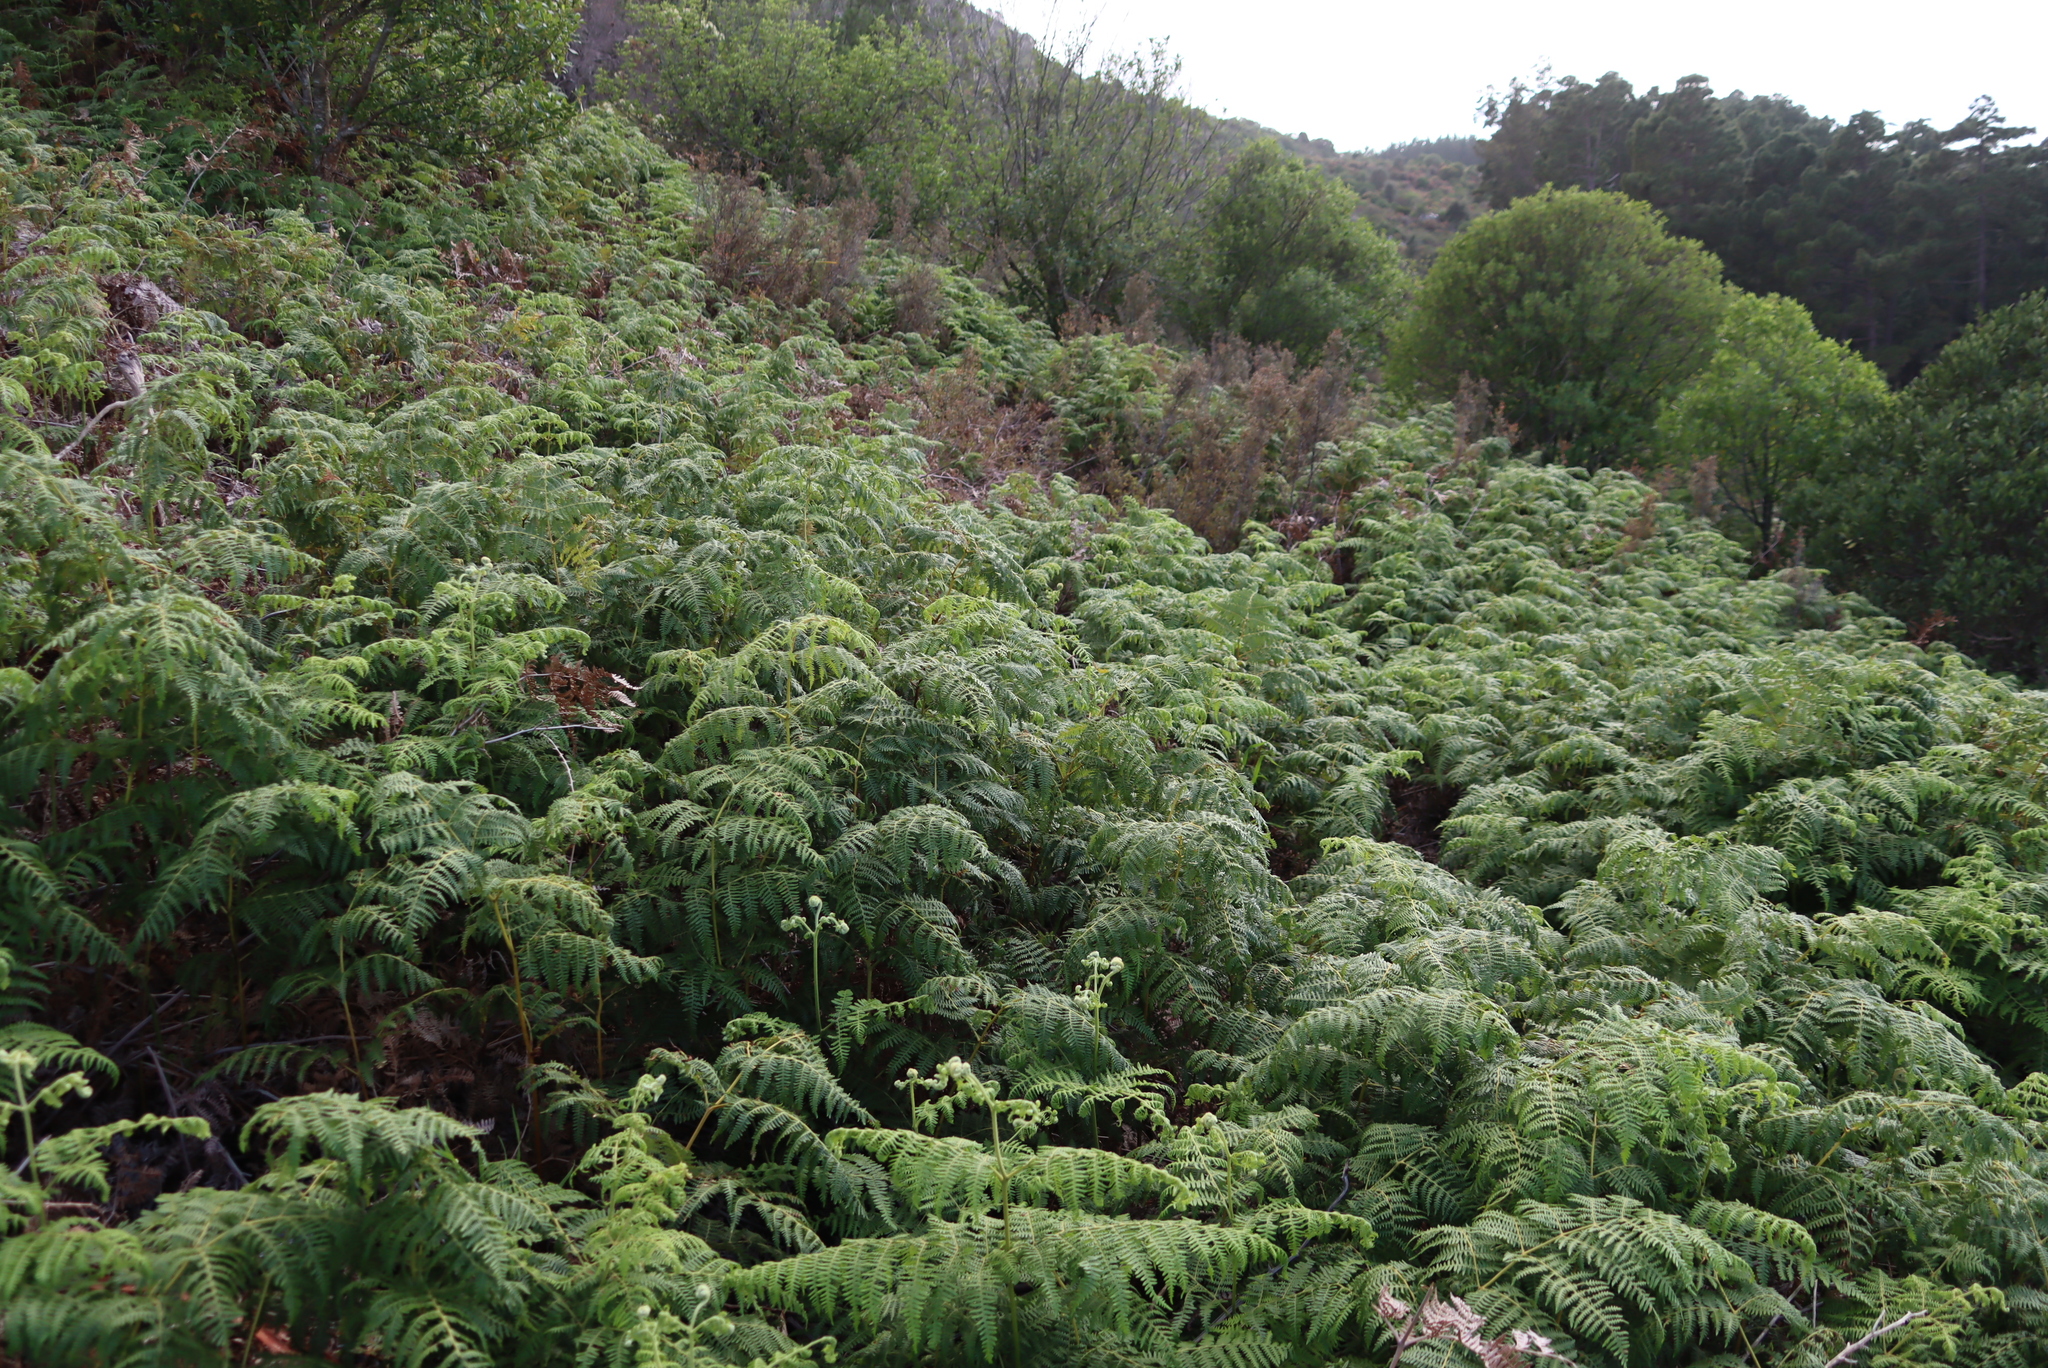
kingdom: Plantae
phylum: Tracheophyta
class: Polypodiopsida
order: Polypodiales
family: Dennstaedtiaceae
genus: Pteridium
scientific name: Pteridium aquilinum
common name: Bracken
